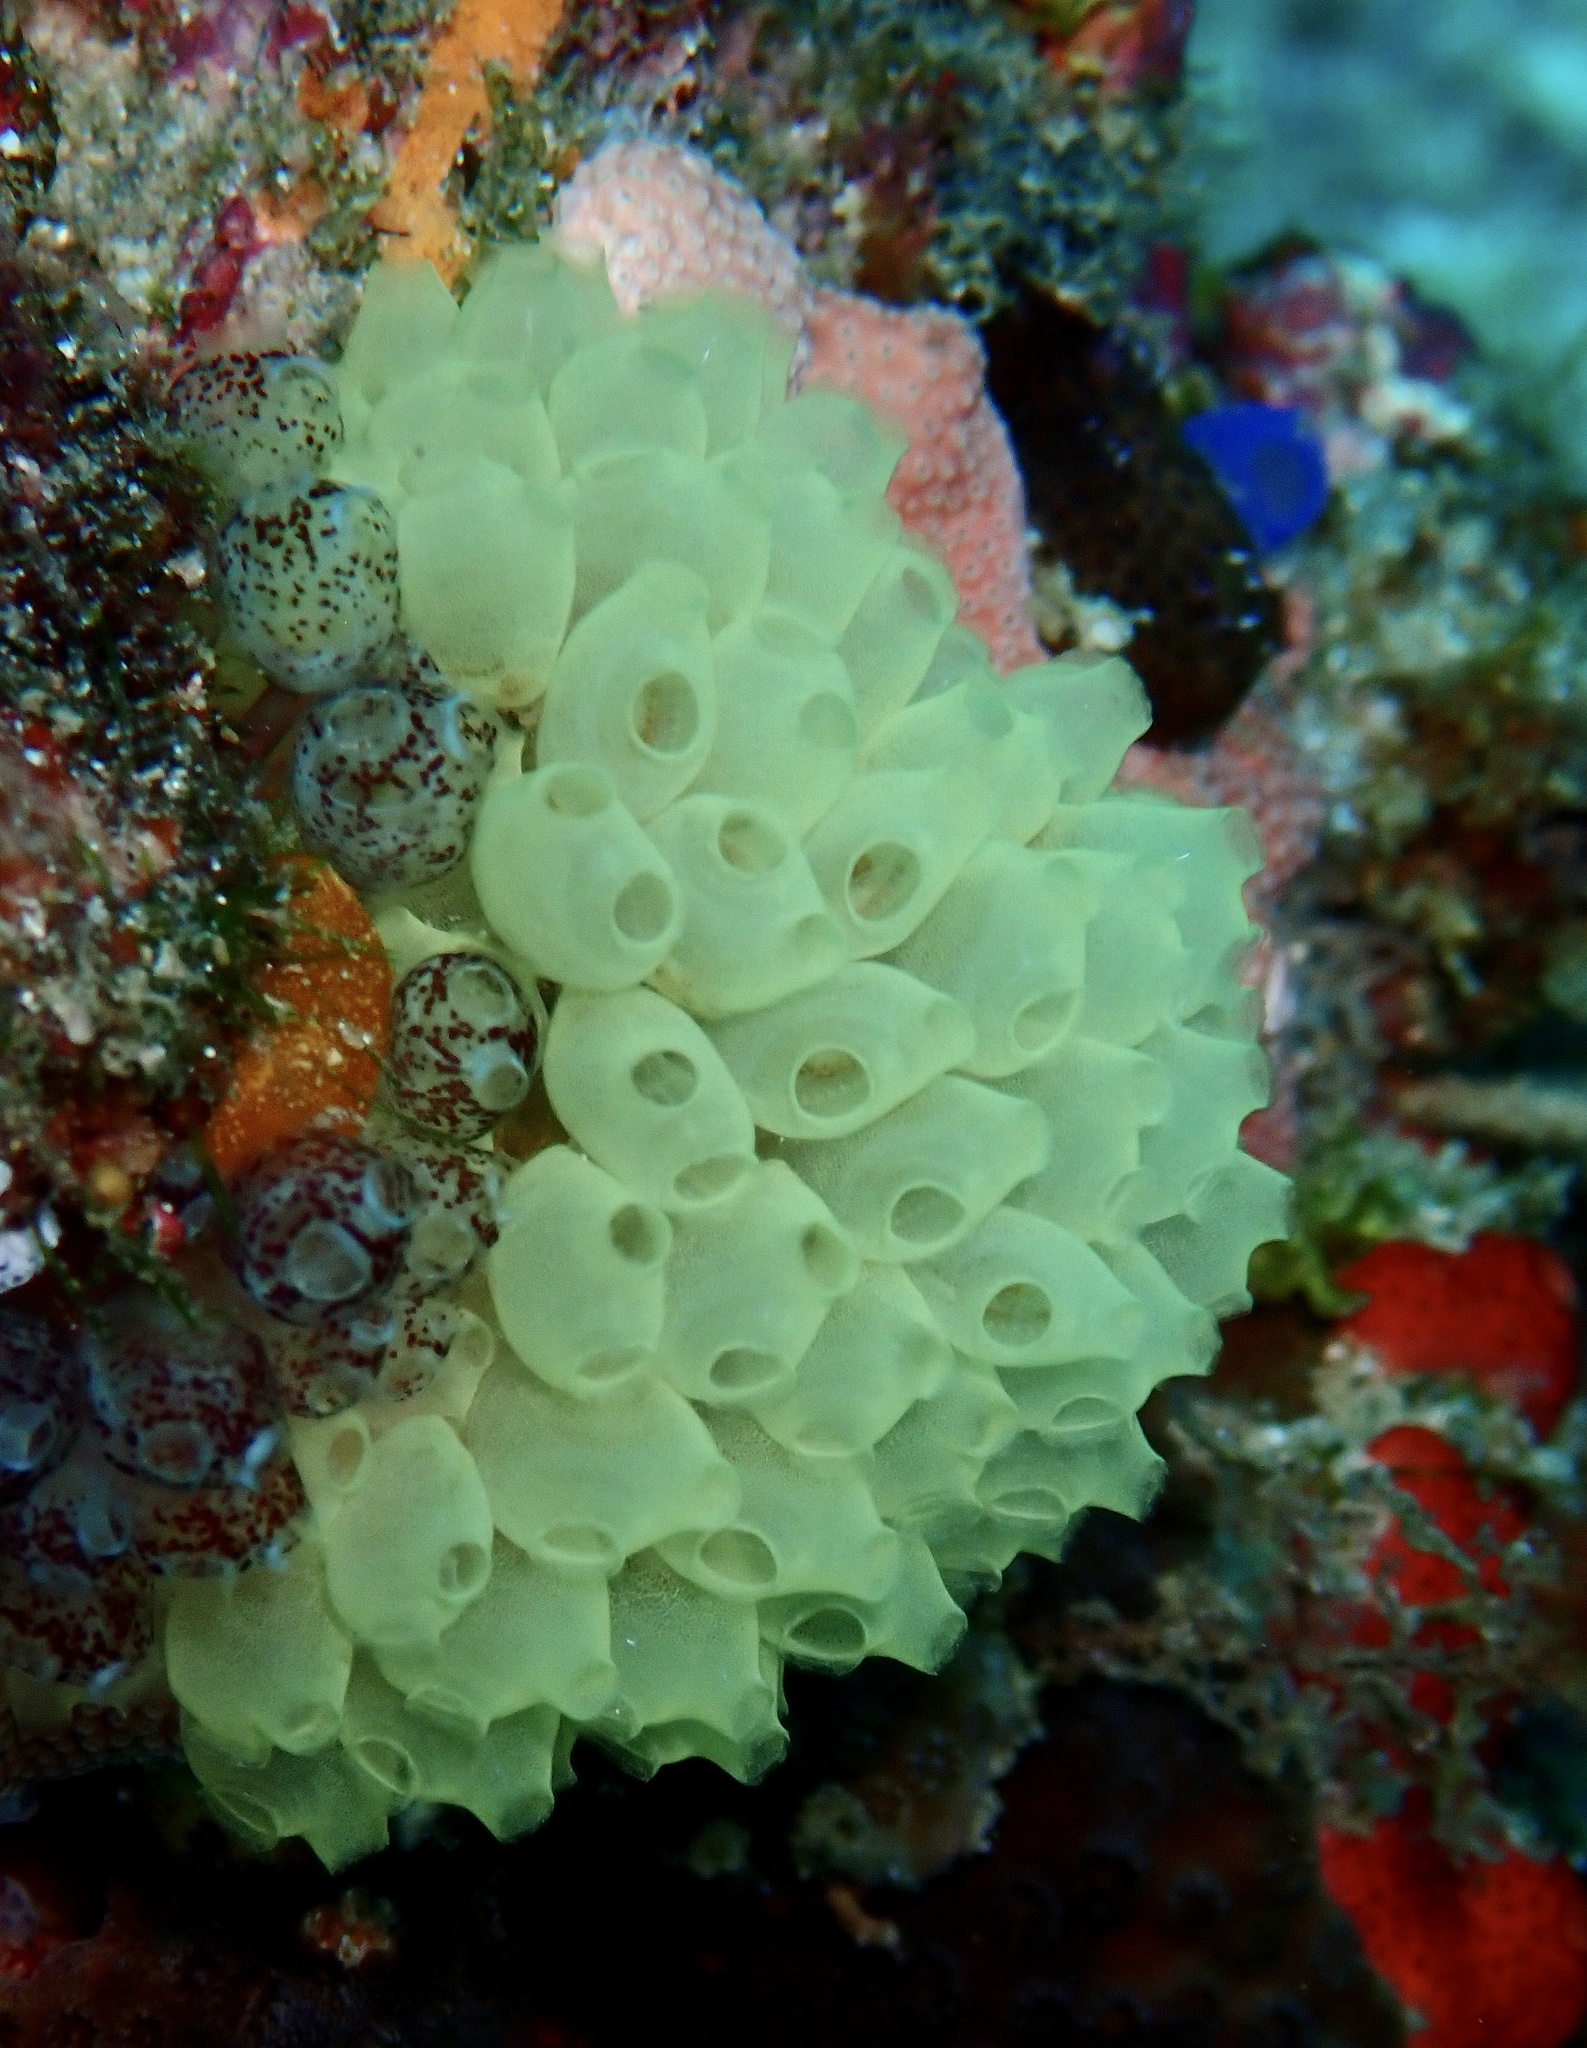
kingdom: Animalia
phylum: Chordata
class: Ascidiacea
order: Phlebobranchia
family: Perophoridae
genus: Perophora
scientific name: Perophora modificata
